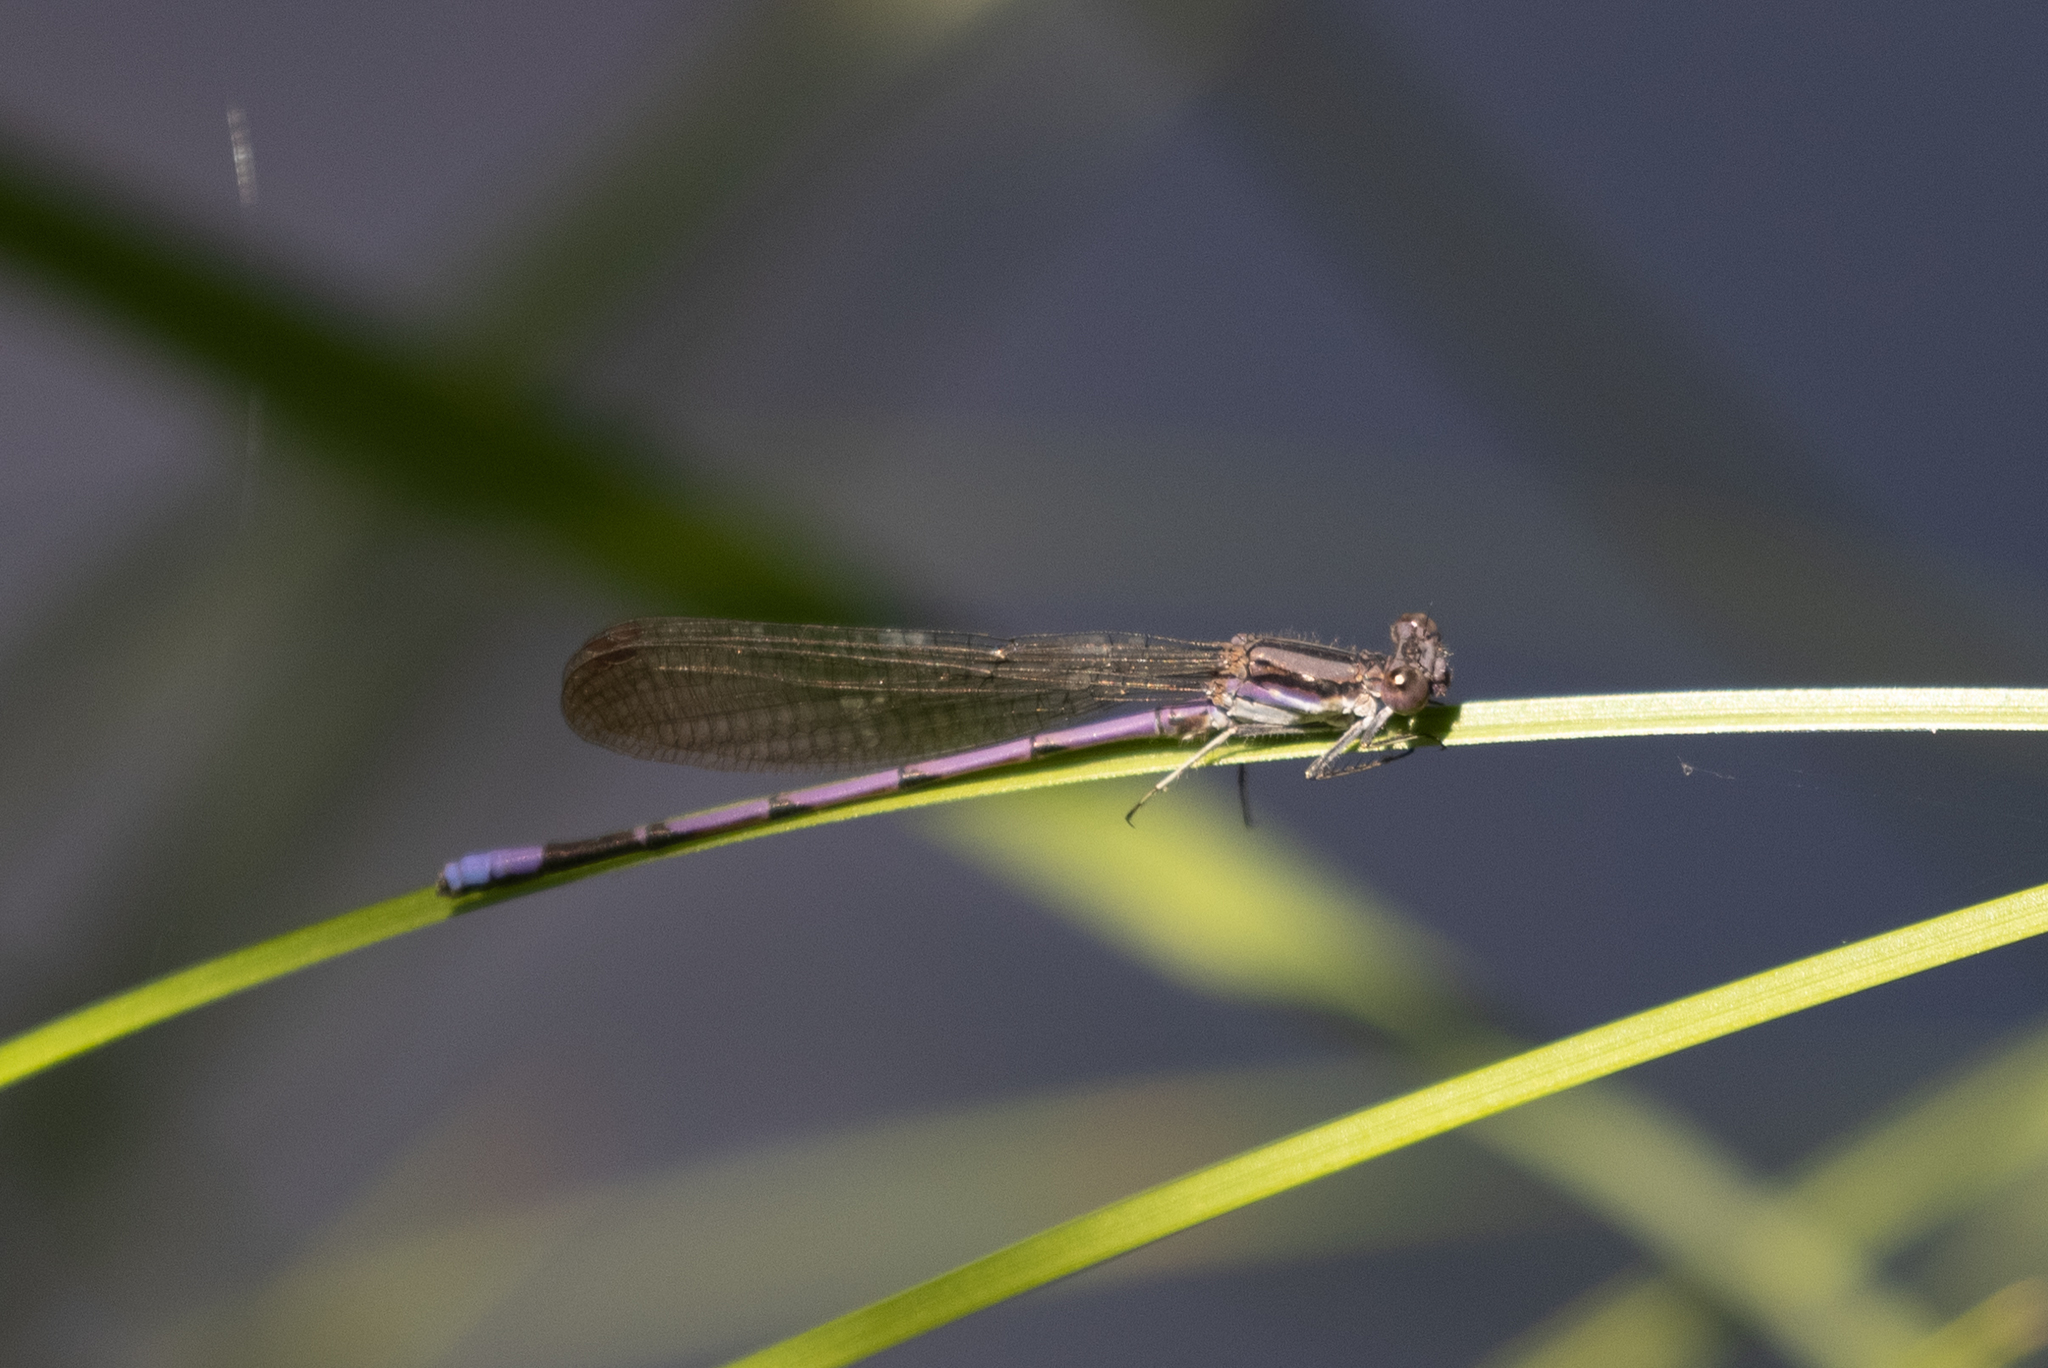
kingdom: Animalia
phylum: Arthropoda
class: Insecta
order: Odonata
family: Coenagrionidae
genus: Argia
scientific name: Argia fumipennis
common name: Variable dancer
